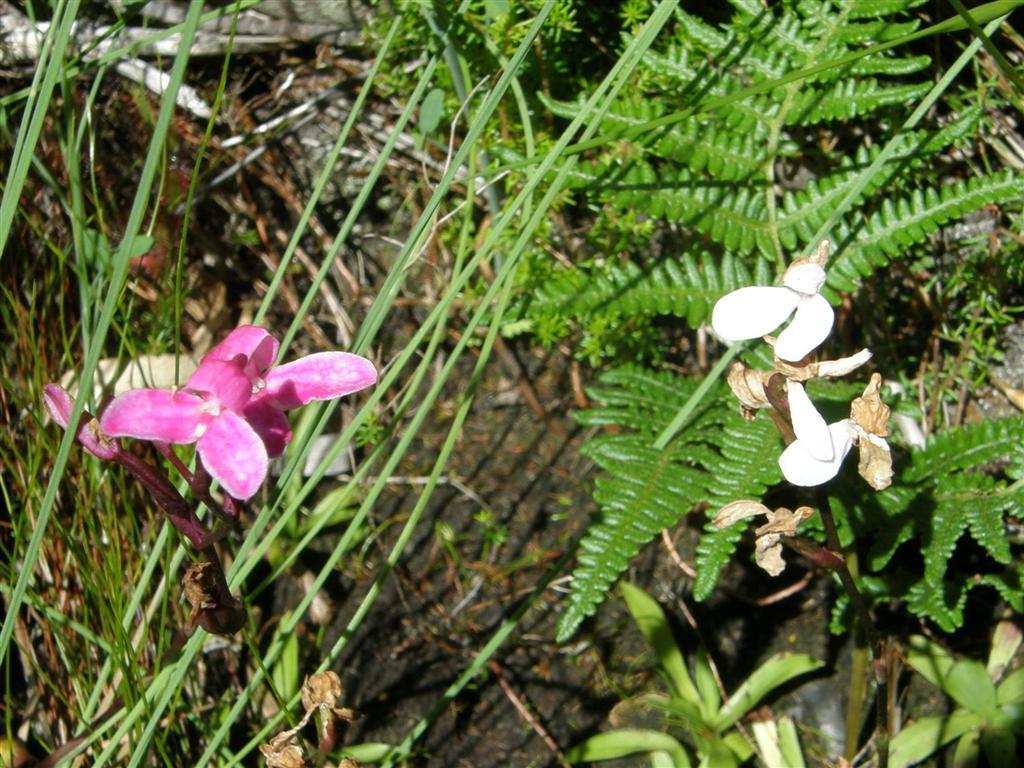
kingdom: Plantae
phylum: Tracheophyta
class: Liliopsida
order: Asparagales
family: Orchidaceae
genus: Disa
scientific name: Disa tripetaloides
